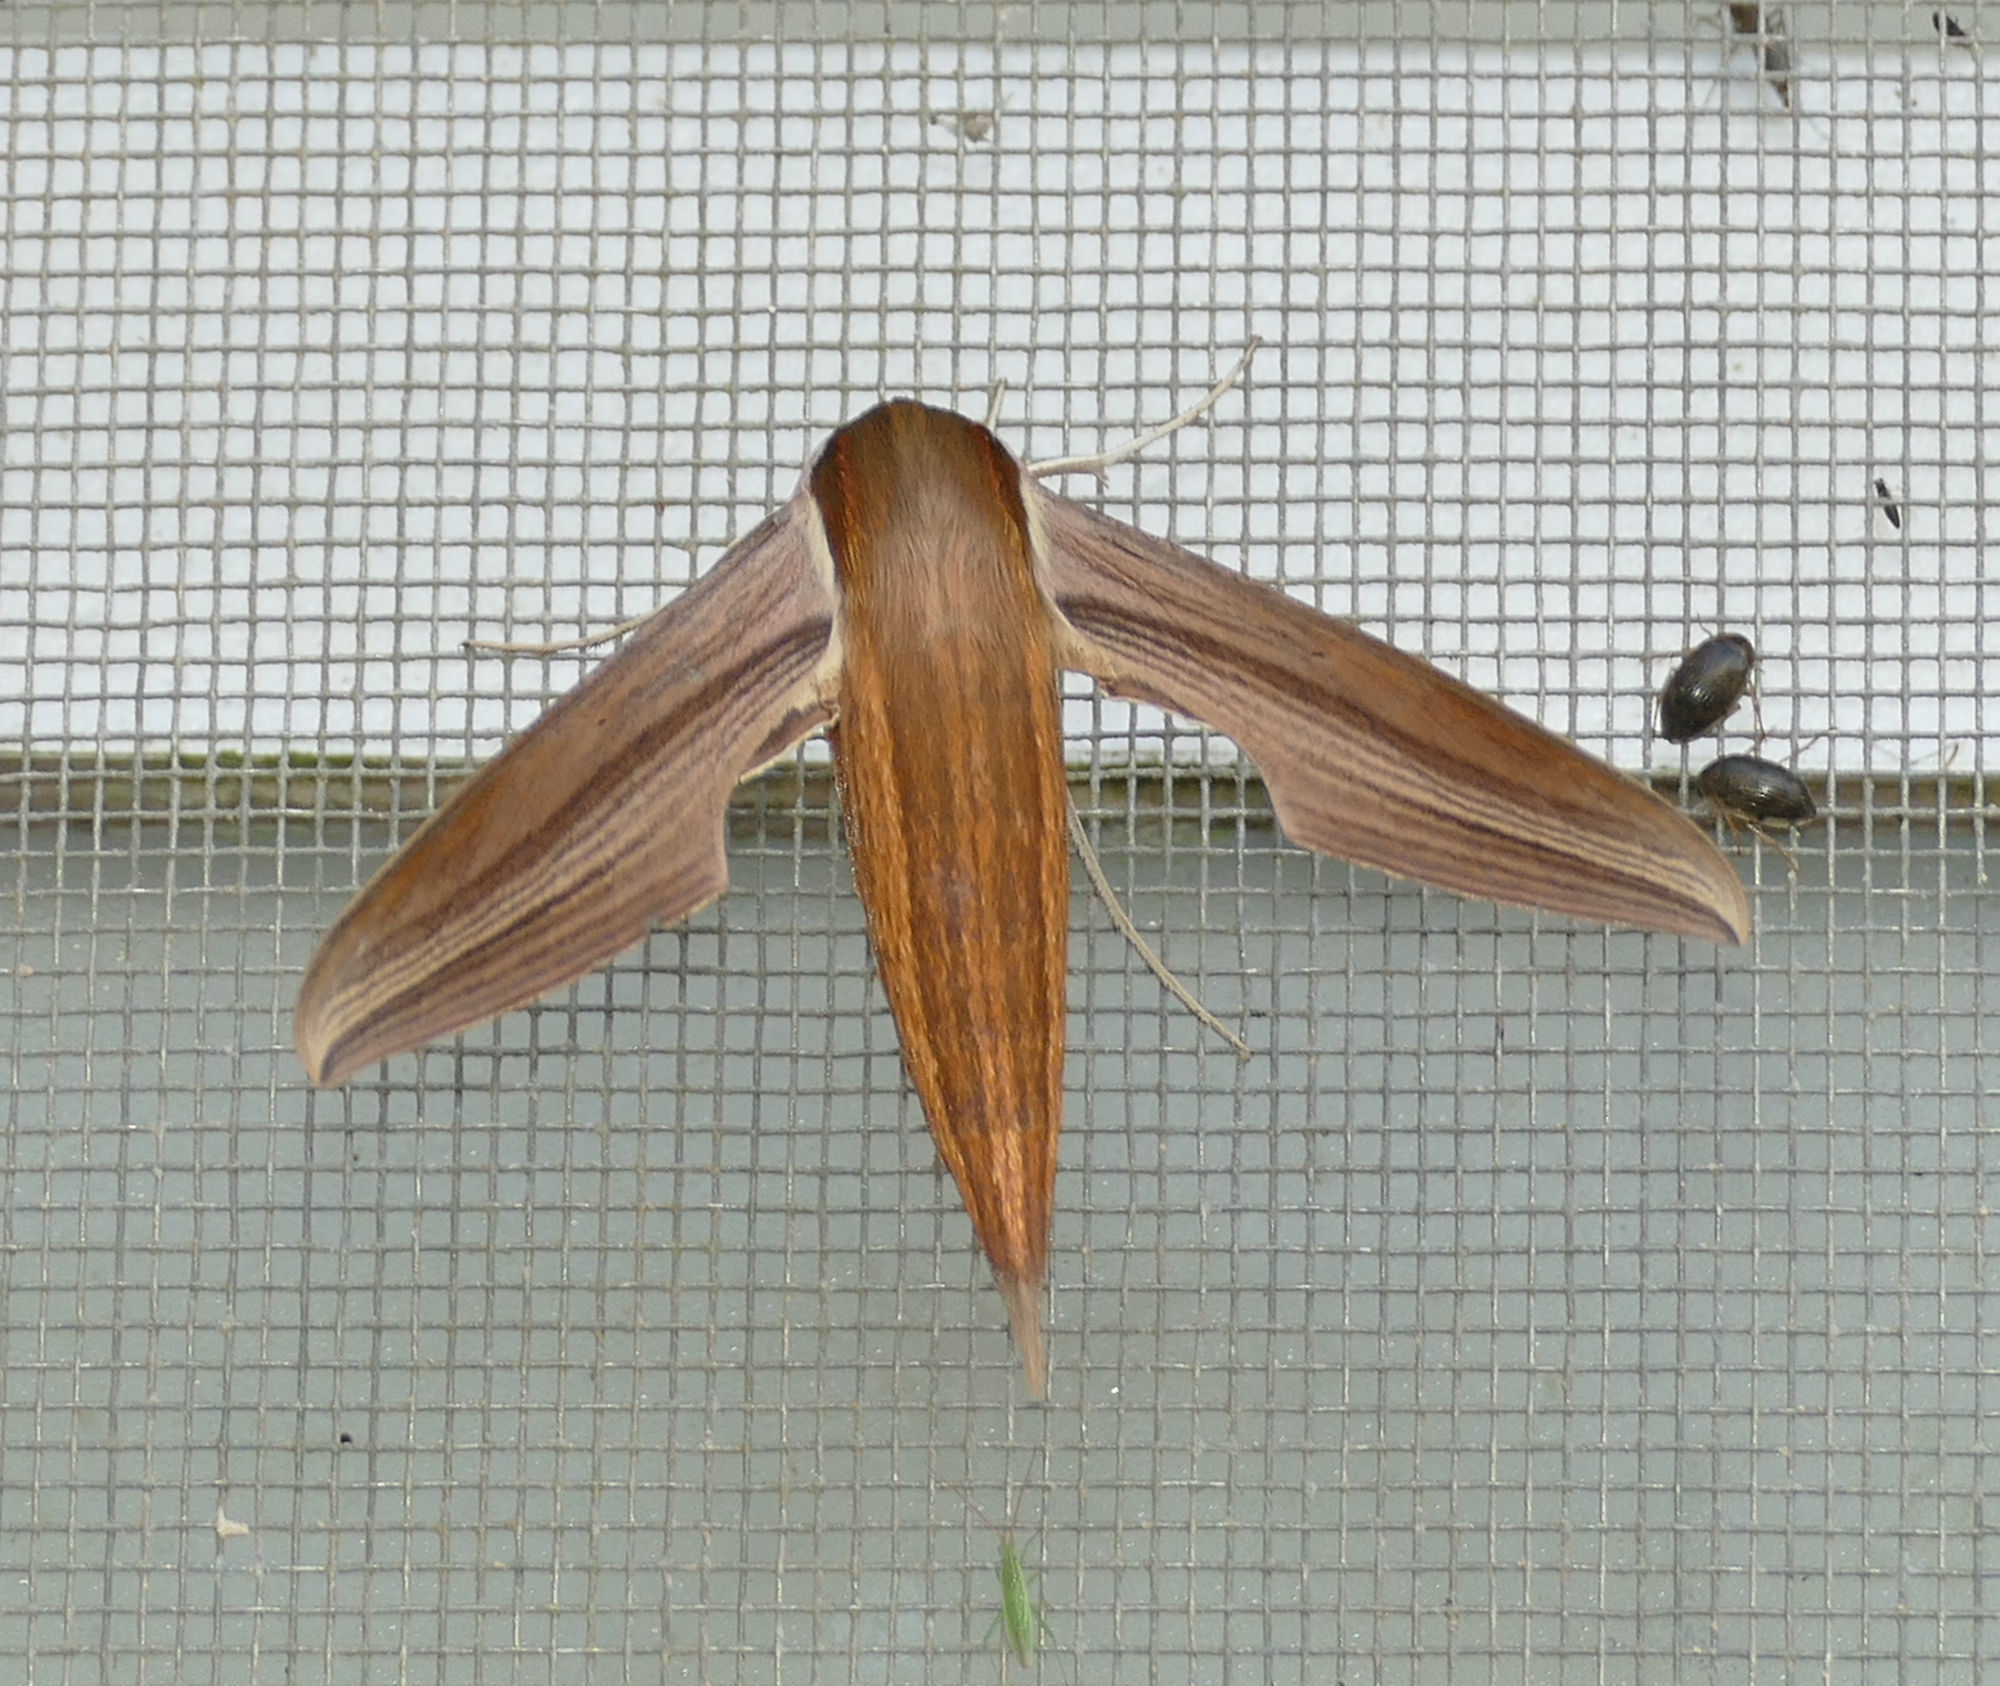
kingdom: Animalia
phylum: Arthropoda
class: Insecta
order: Lepidoptera
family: Sphingidae
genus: Xylophanes
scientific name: Xylophanes tersa
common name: Tersa sphinx
